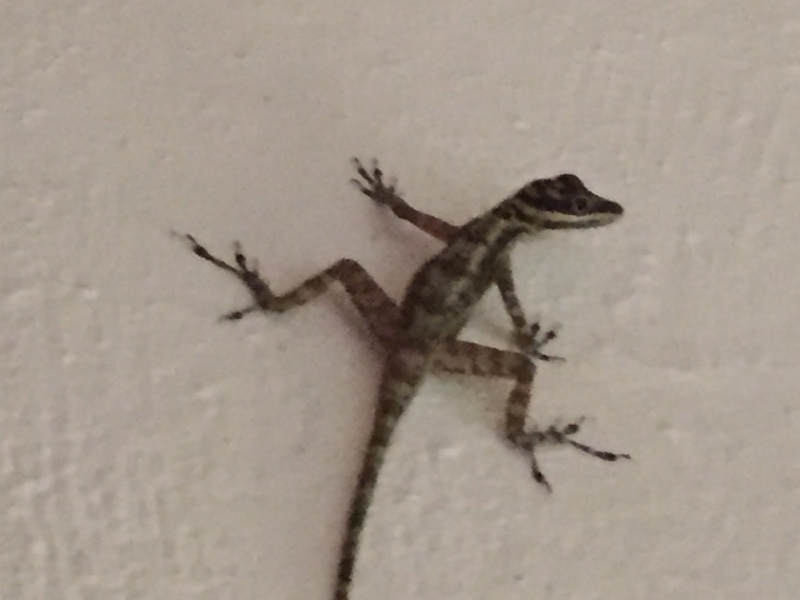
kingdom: Animalia
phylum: Chordata
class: Squamata
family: Dactyloidae
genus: Anolis
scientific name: Anolis lucius
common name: Cave anole
